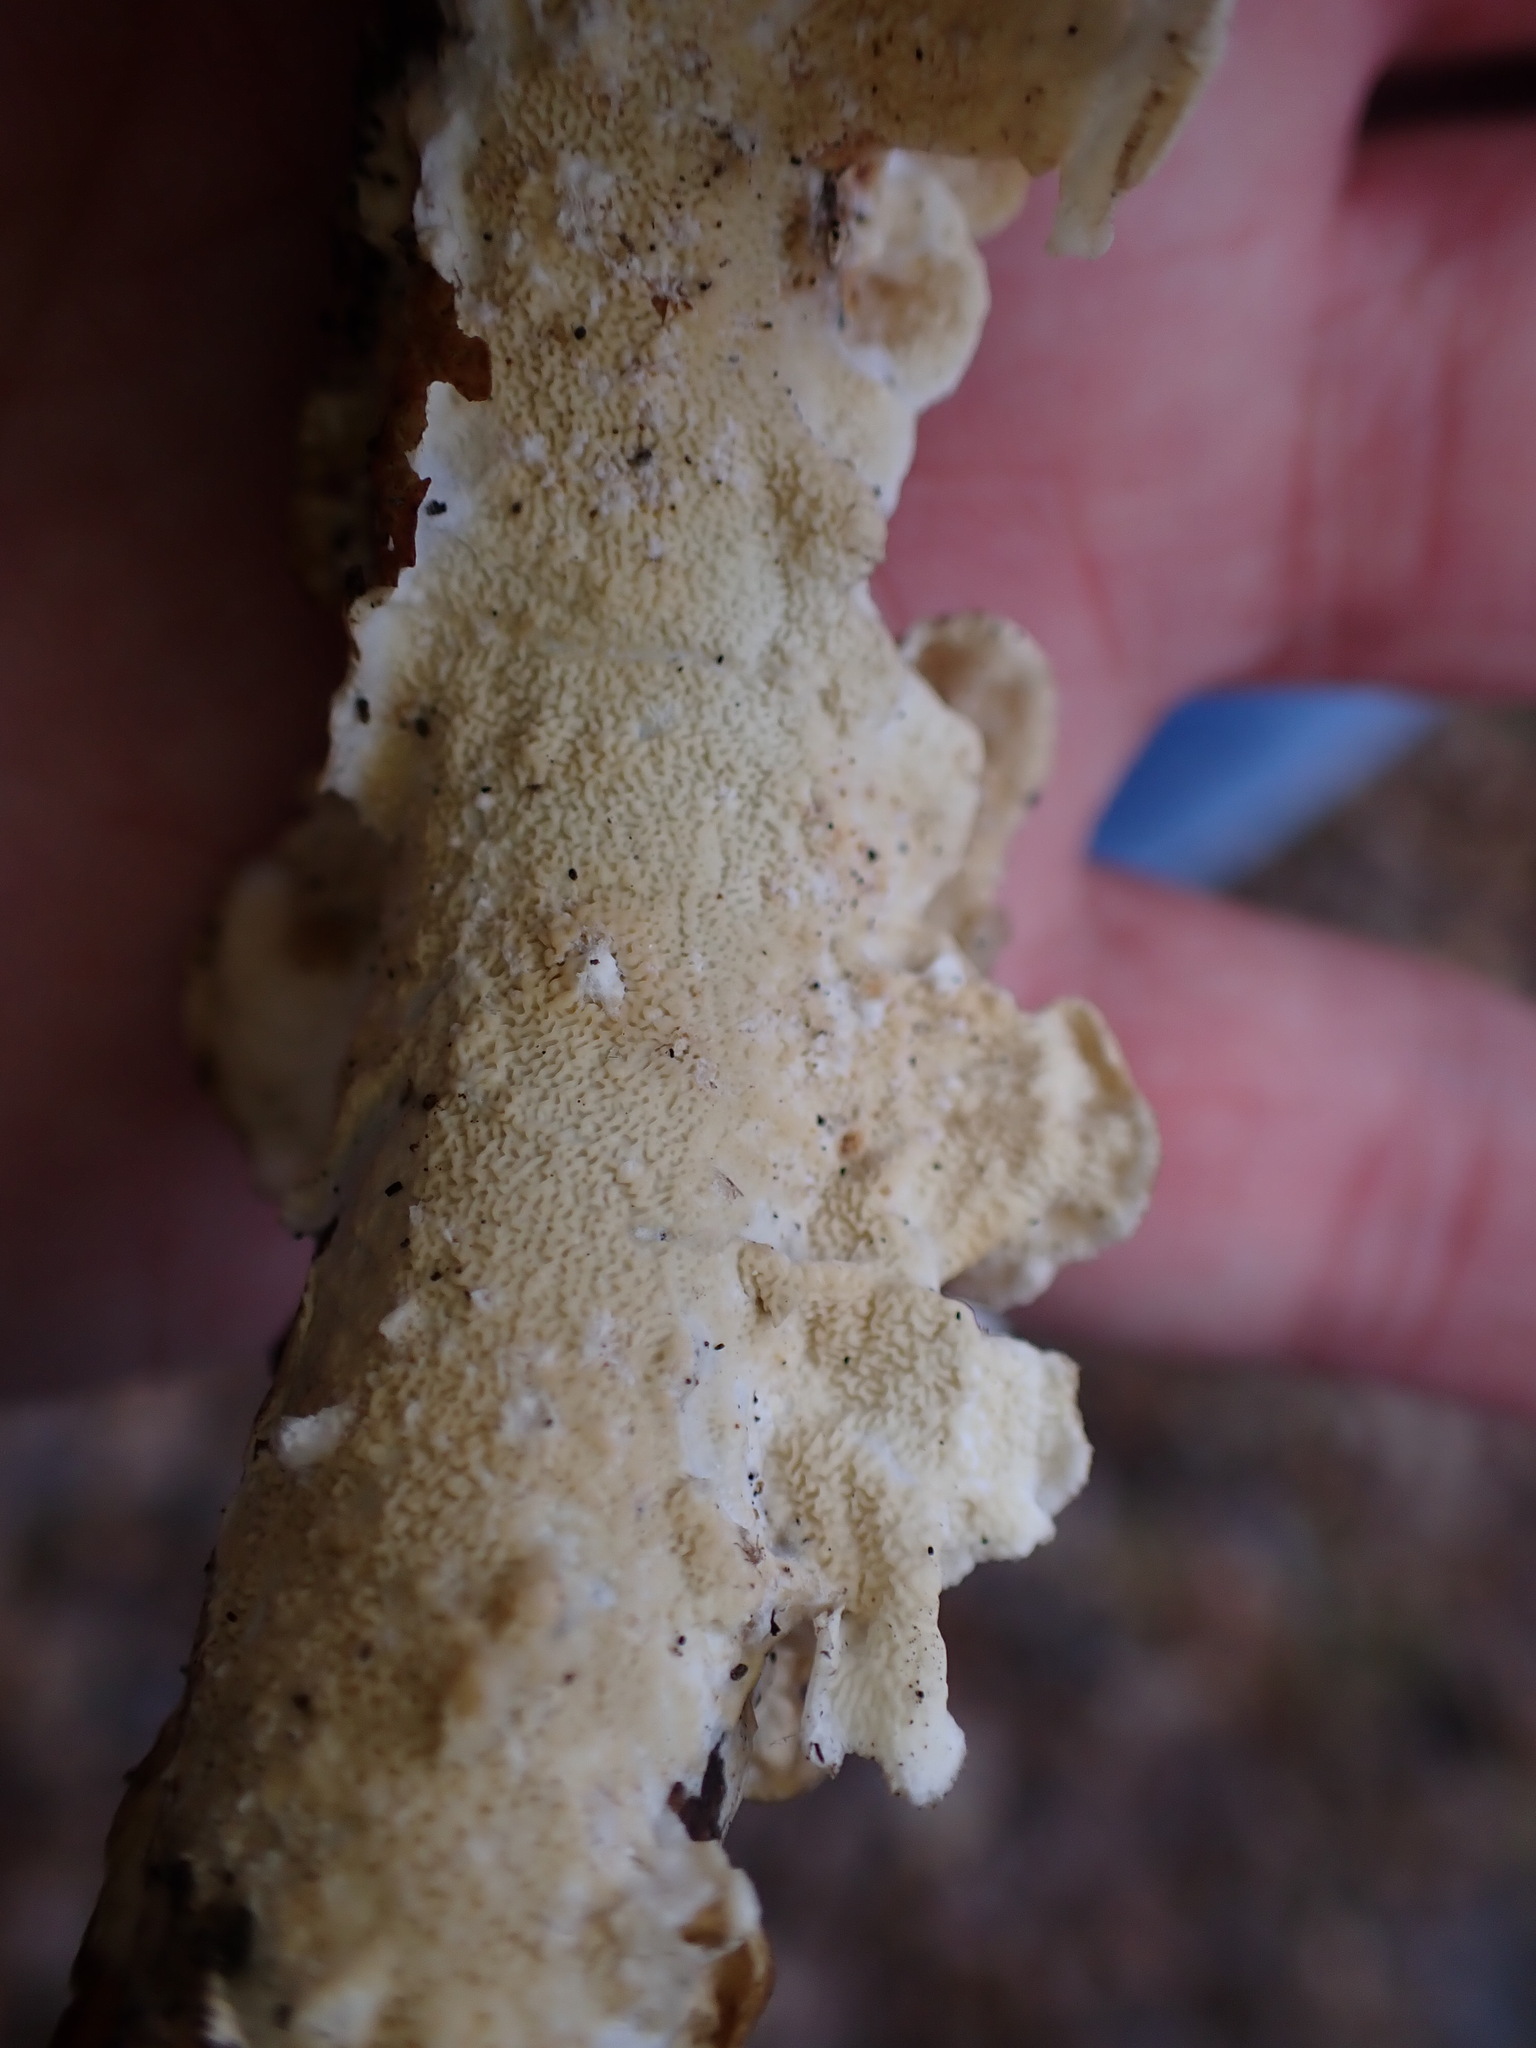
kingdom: Fungi
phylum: Basidiomycota
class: Agaricomycetes
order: Polyporales
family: Irpicaceae
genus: Byssomerulius
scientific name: Byssomerulius corium
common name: Netted crust
